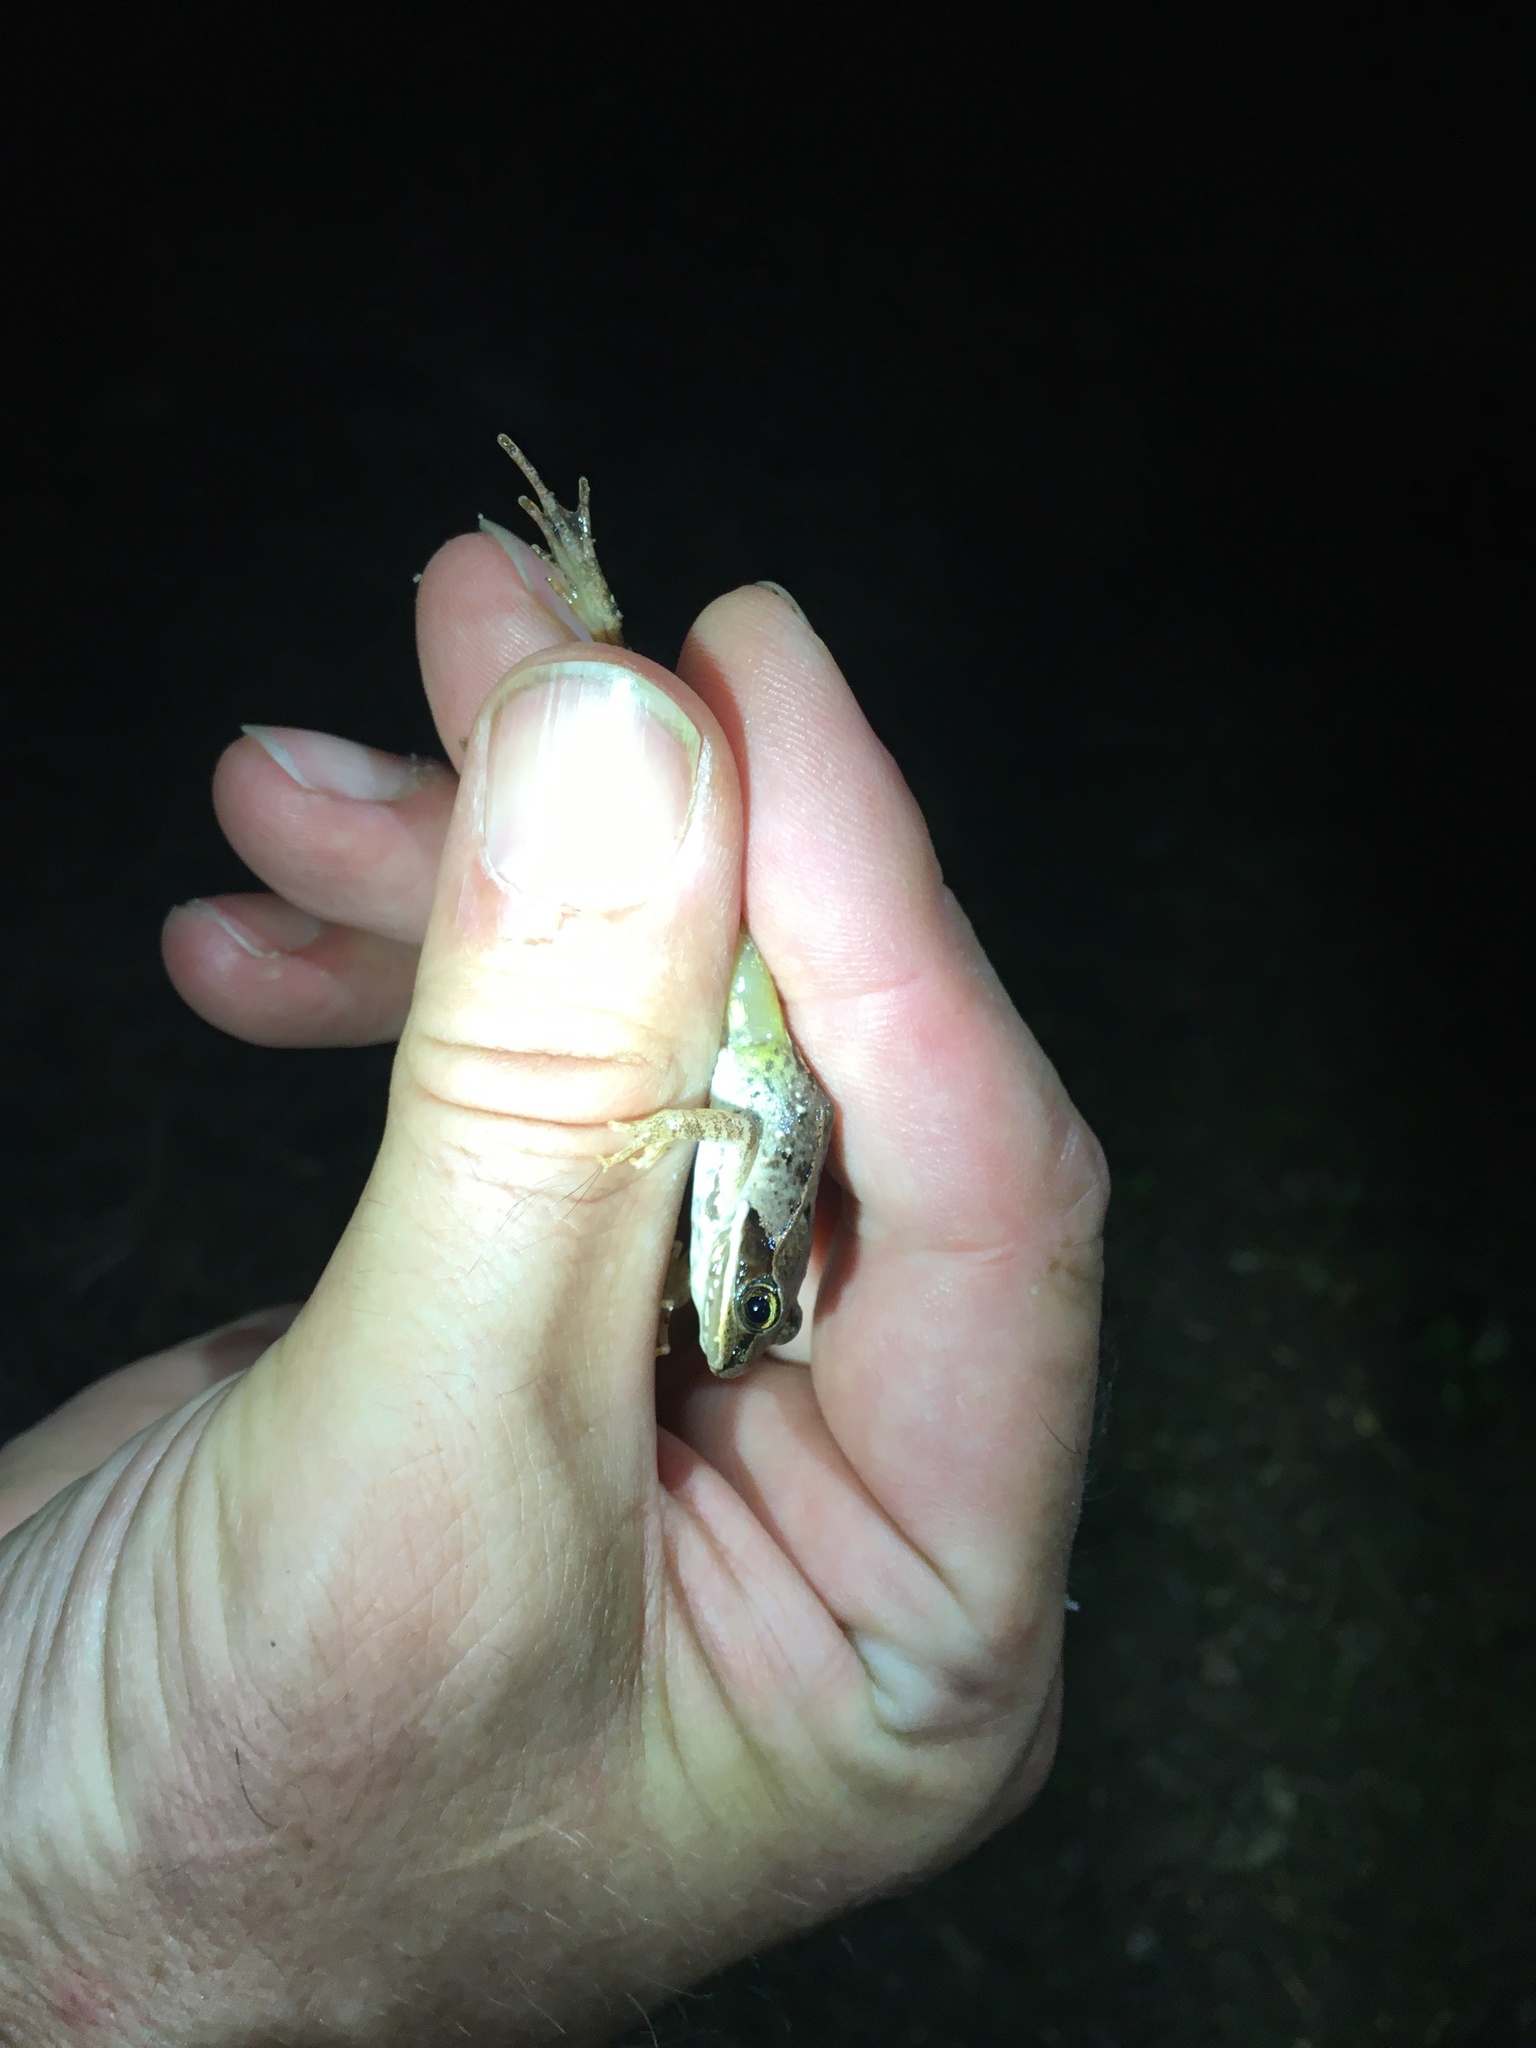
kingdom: Animalia
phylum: Chordata
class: Amphibia
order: Anura
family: Ranidae
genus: Lithobates
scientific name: Lithobates sylvaticus
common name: Wood frog
